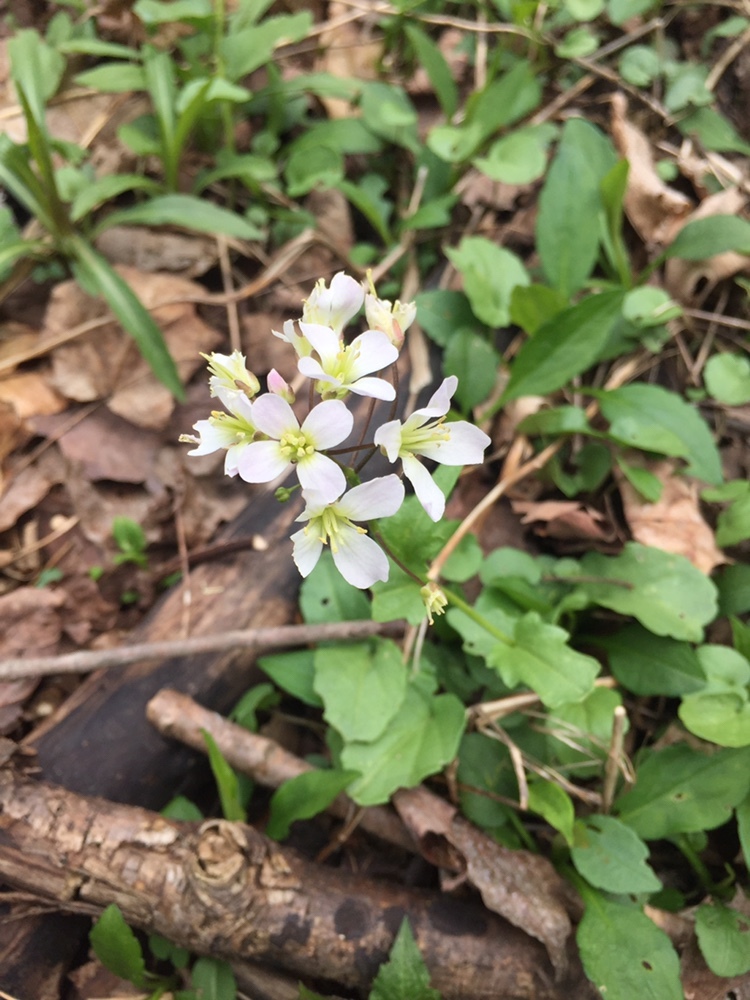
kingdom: Plantae
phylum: Tracheophyta
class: Magnoliopsida
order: Brassicales
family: Brassicaceae
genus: Cardamine
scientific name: Cardamine douglassii
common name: Purple cress
